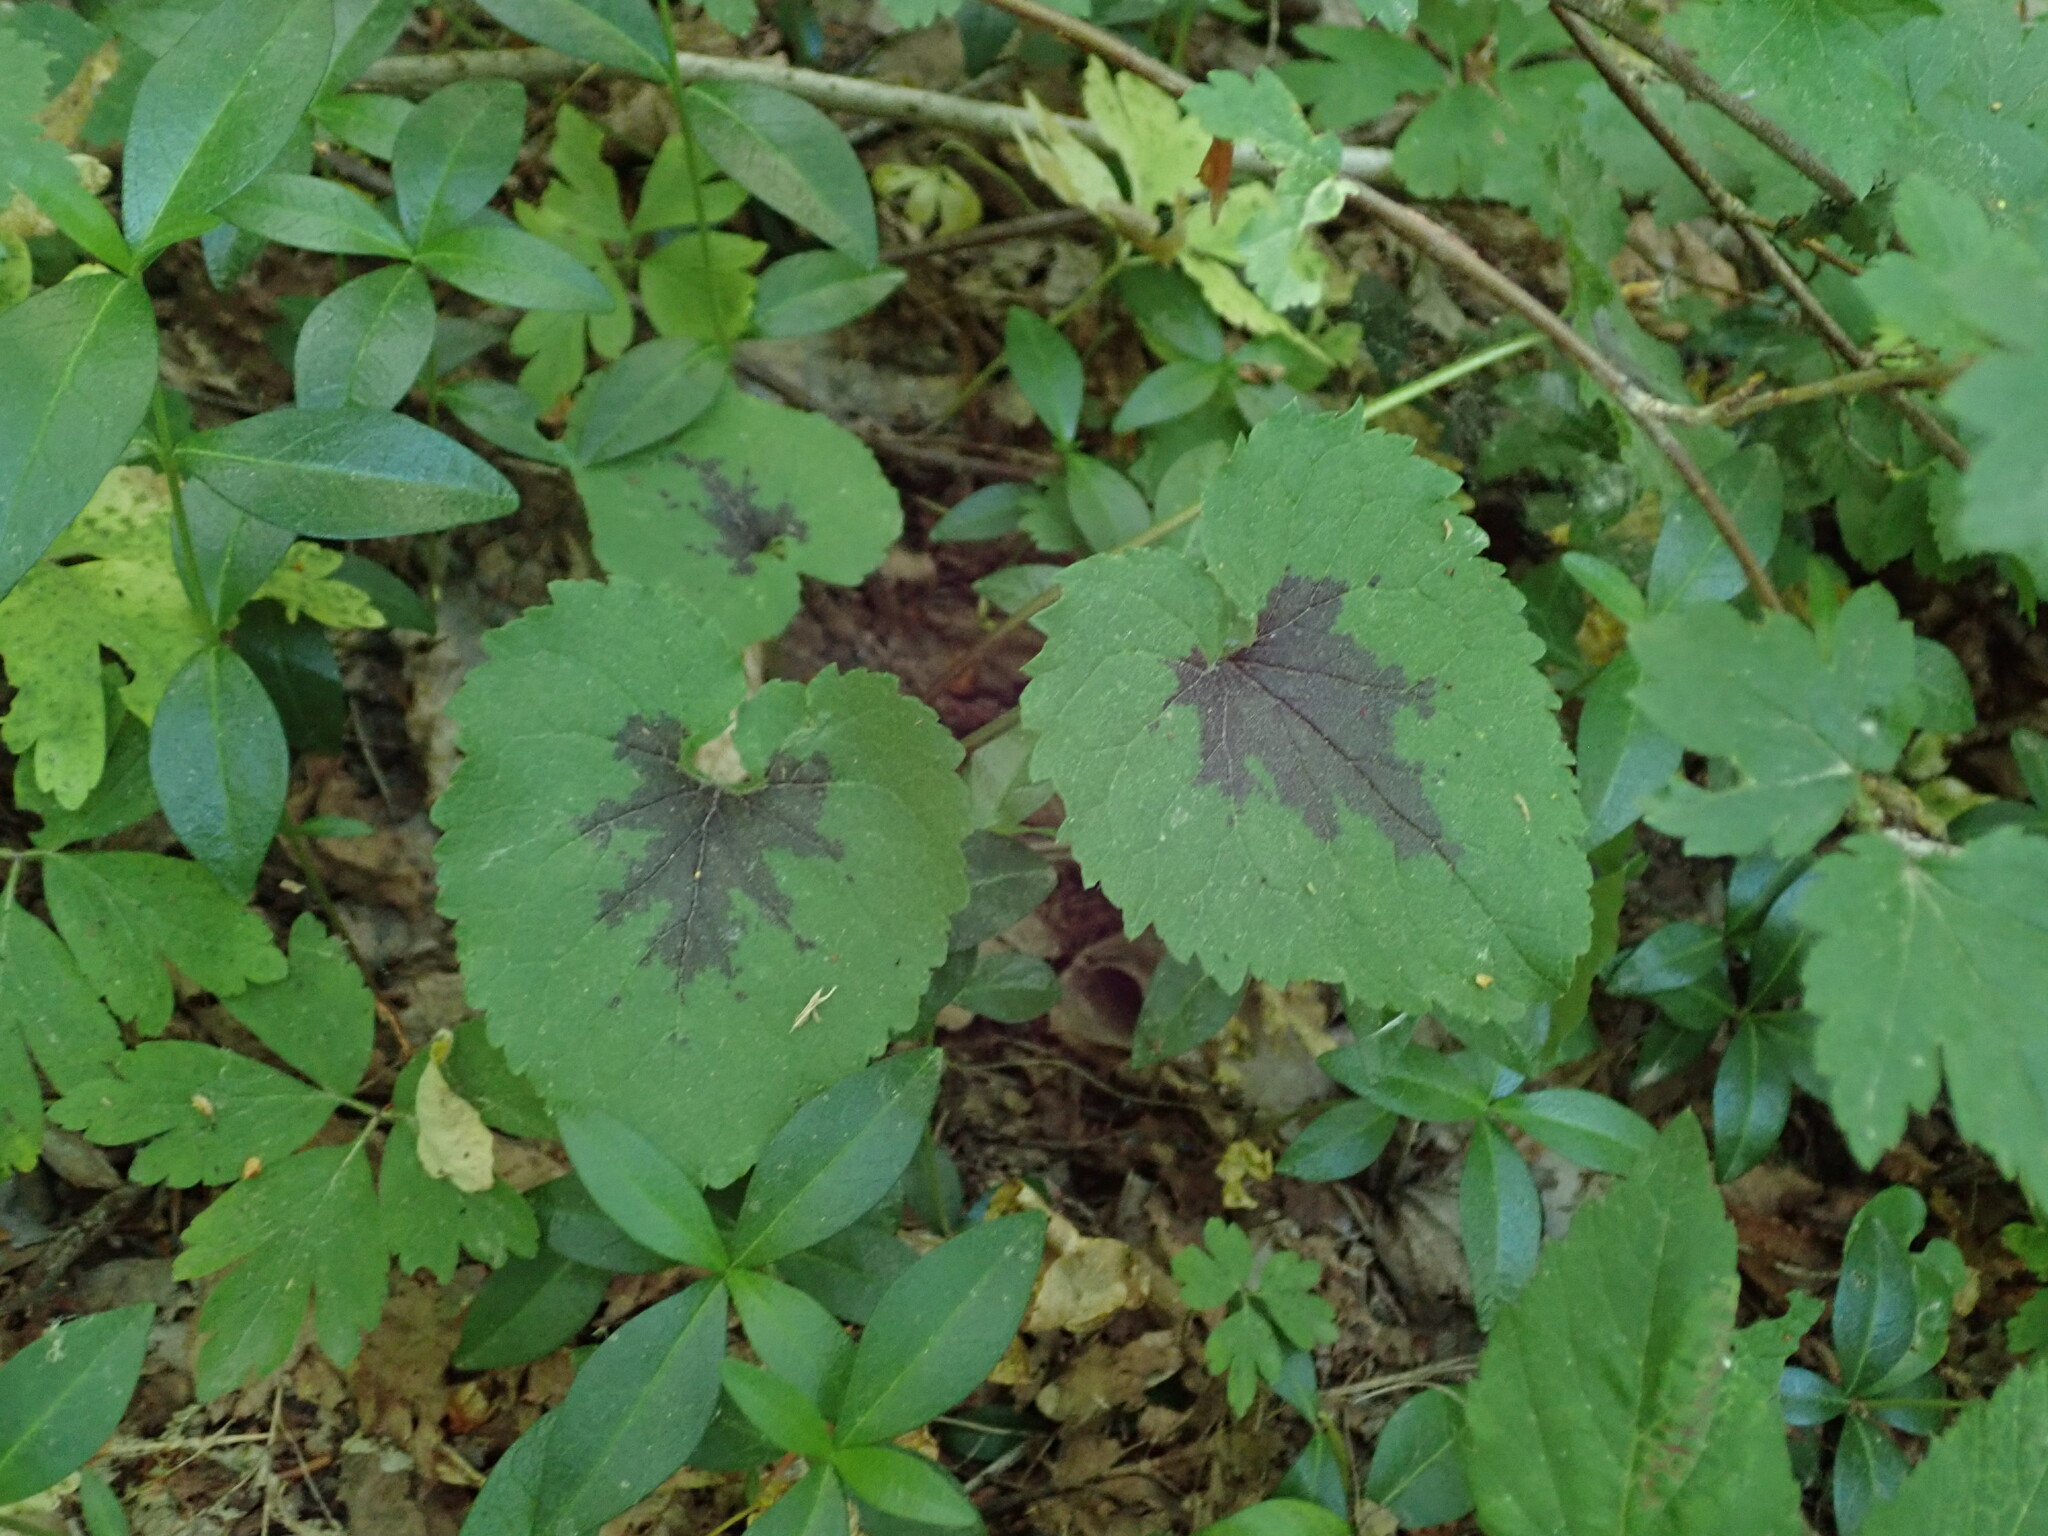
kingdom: Plantae
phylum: Tracheophyta
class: Magnoliopsida
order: Asterales
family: Campanulaceae
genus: Phyteuma
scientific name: Phyteuma spicatum
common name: Spiked rampion
